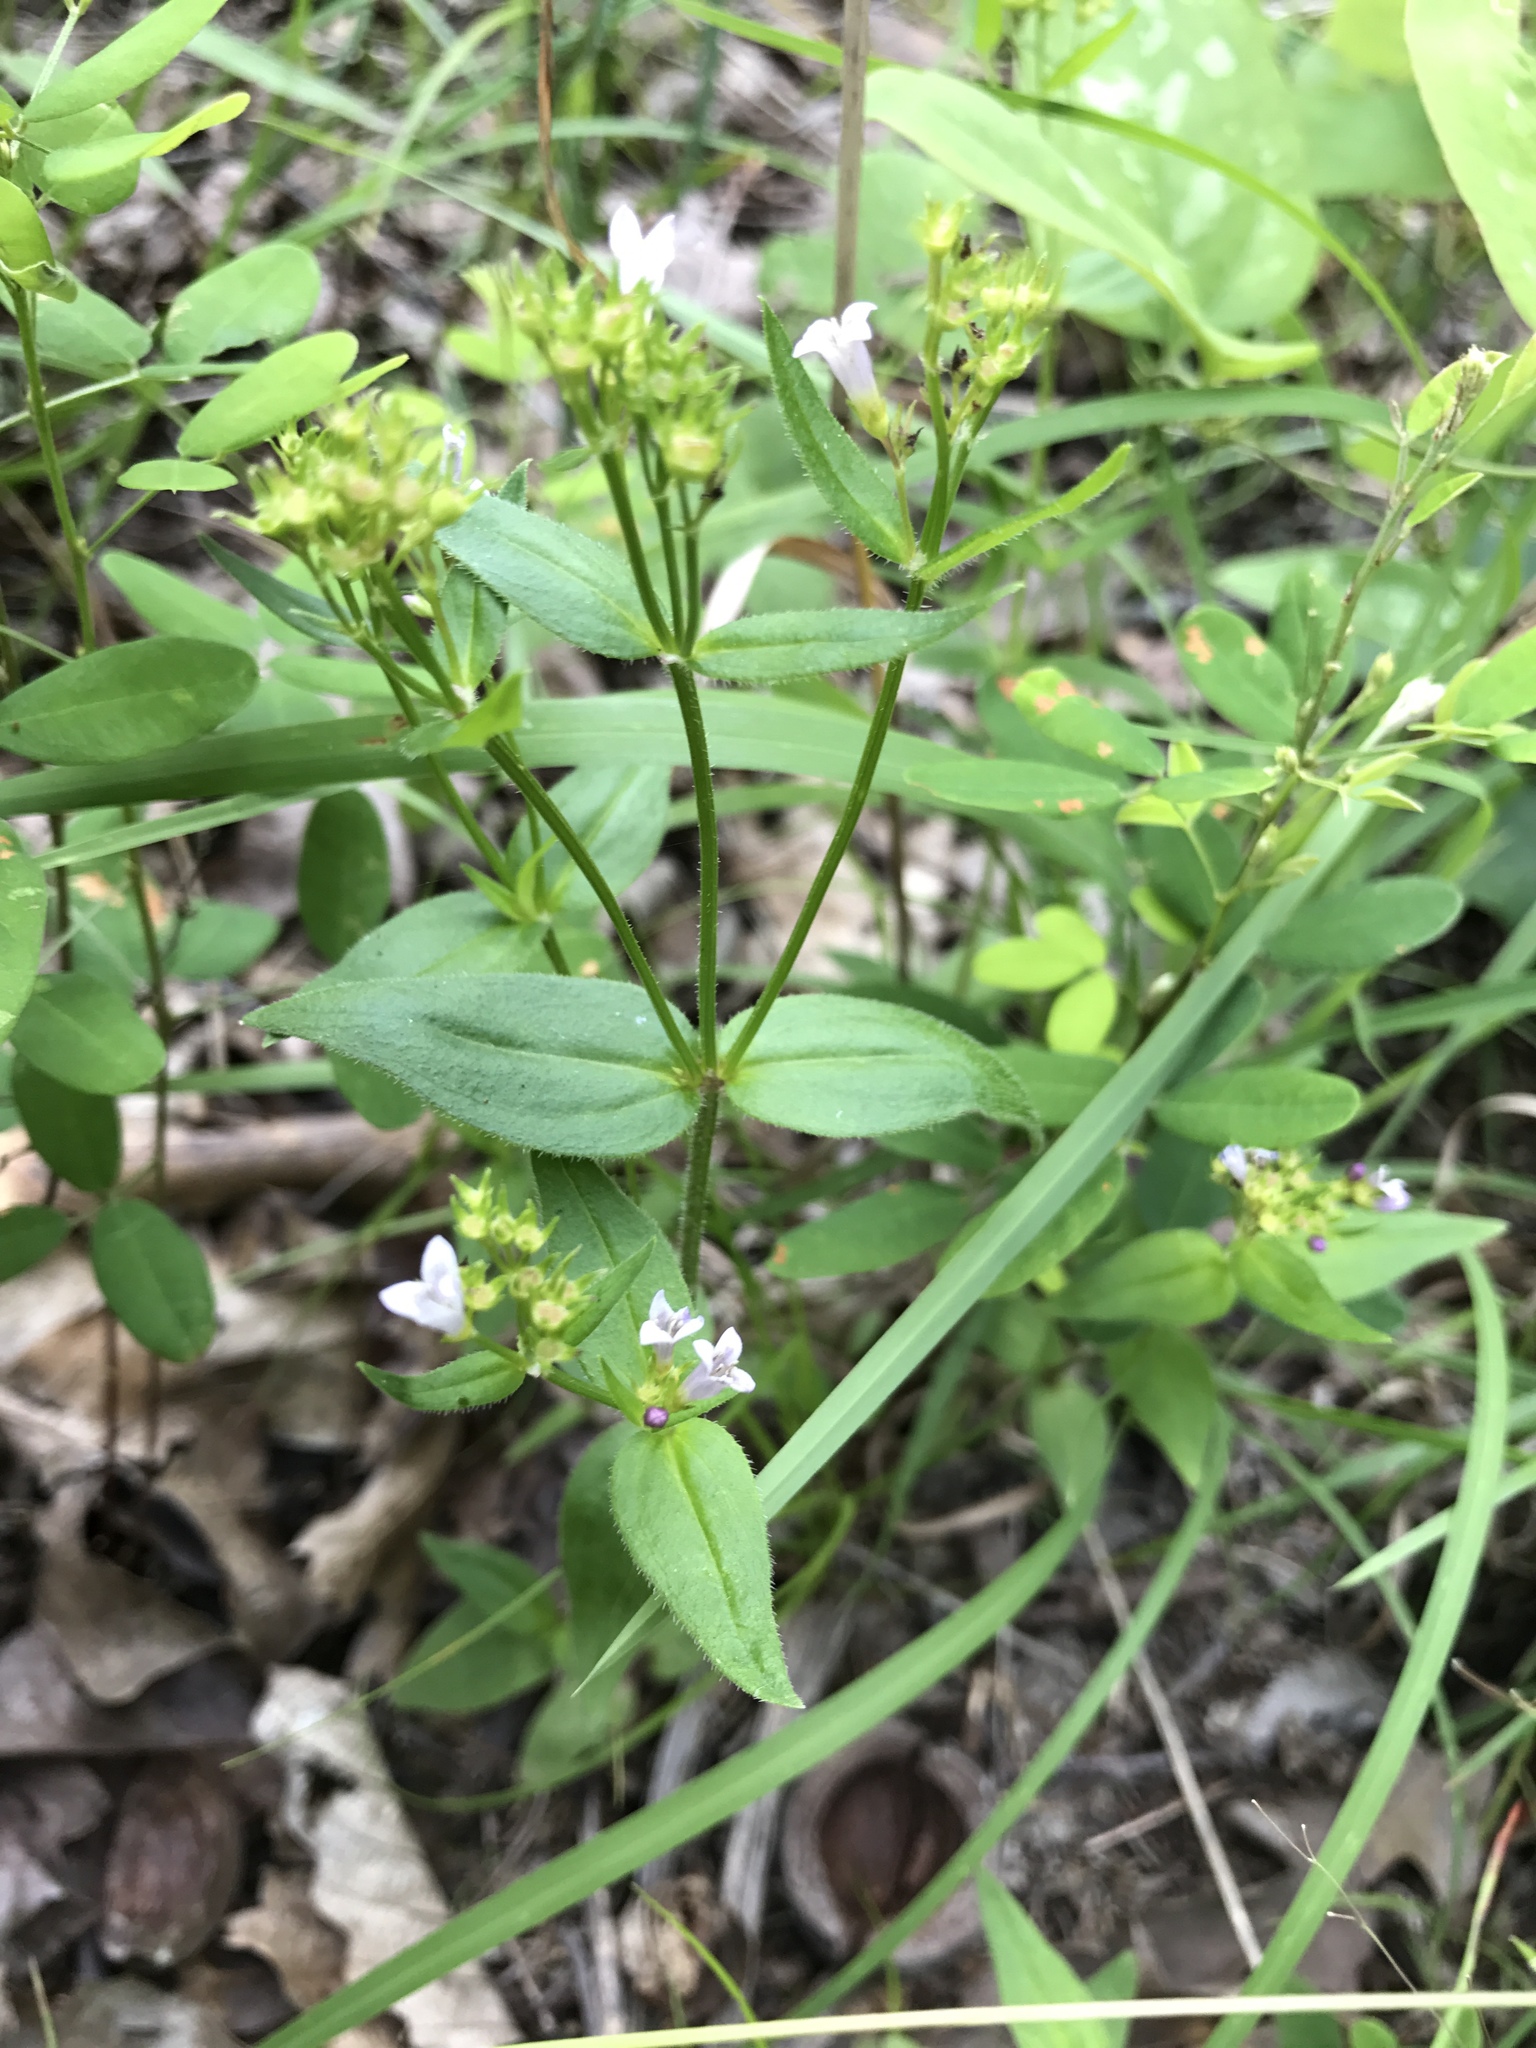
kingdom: Plantae
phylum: Tracheophyta
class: Magnoliopsida
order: Gentianales
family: Rubiaceae
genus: Houstonia
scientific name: Houstonia purpurea
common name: Summer bluet
